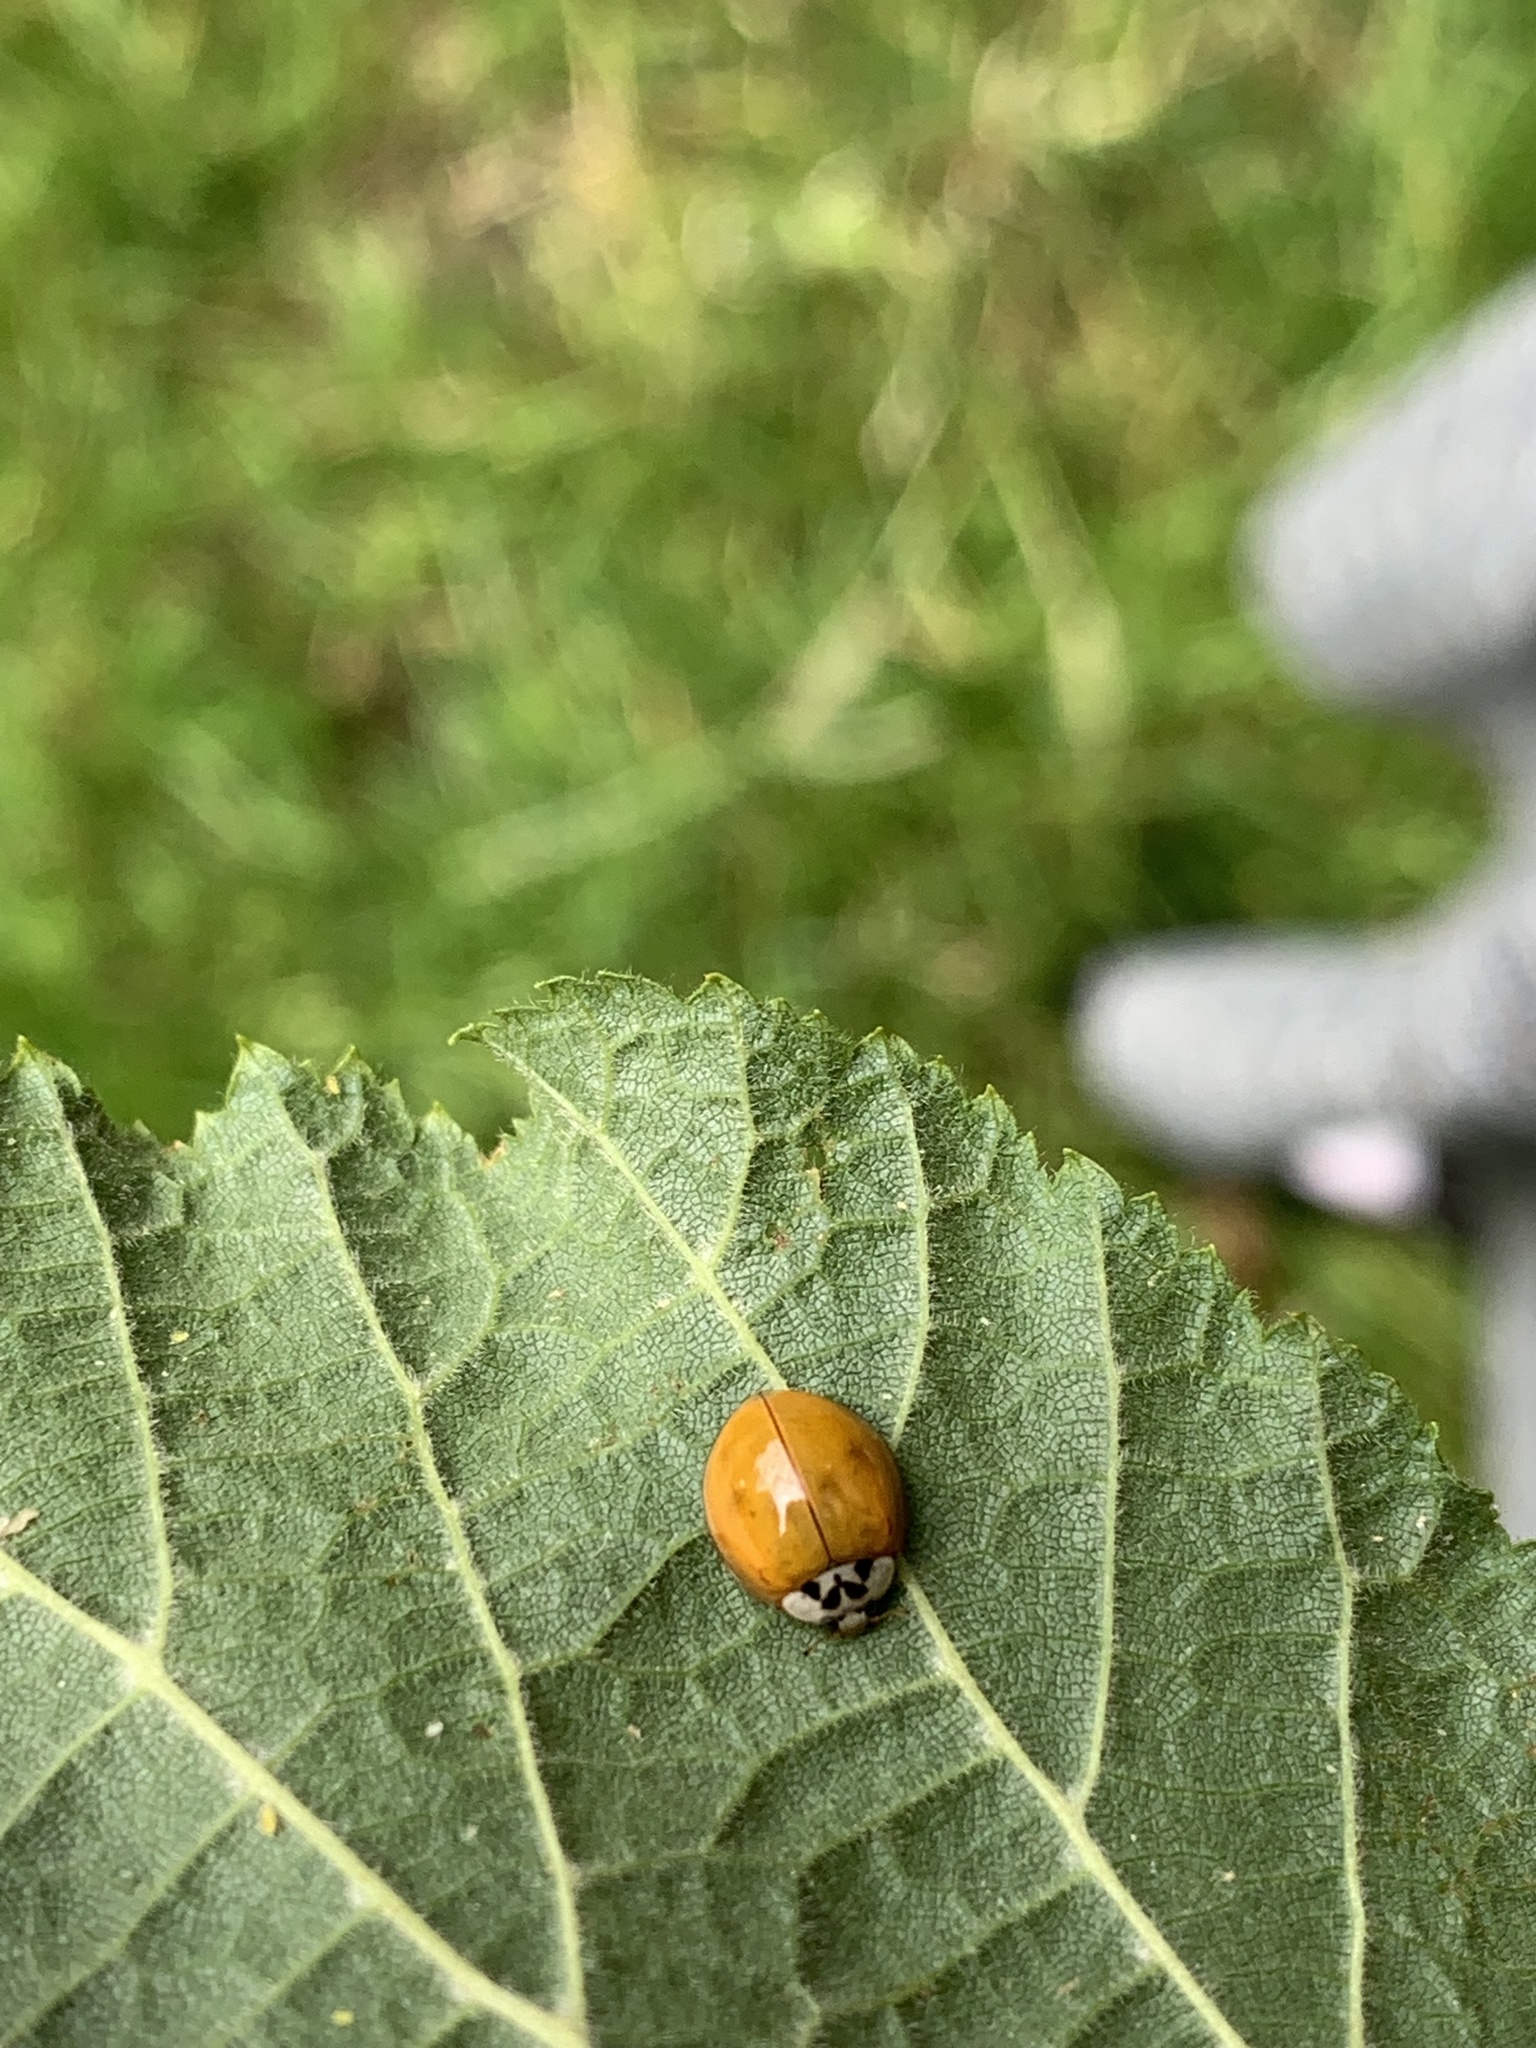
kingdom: Animalia
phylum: Arthropoda
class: Insecta
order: Coleoptera
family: Coccinellidae
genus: Harmonia
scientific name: Harmonia axyridis
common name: Harlequin ladybird
